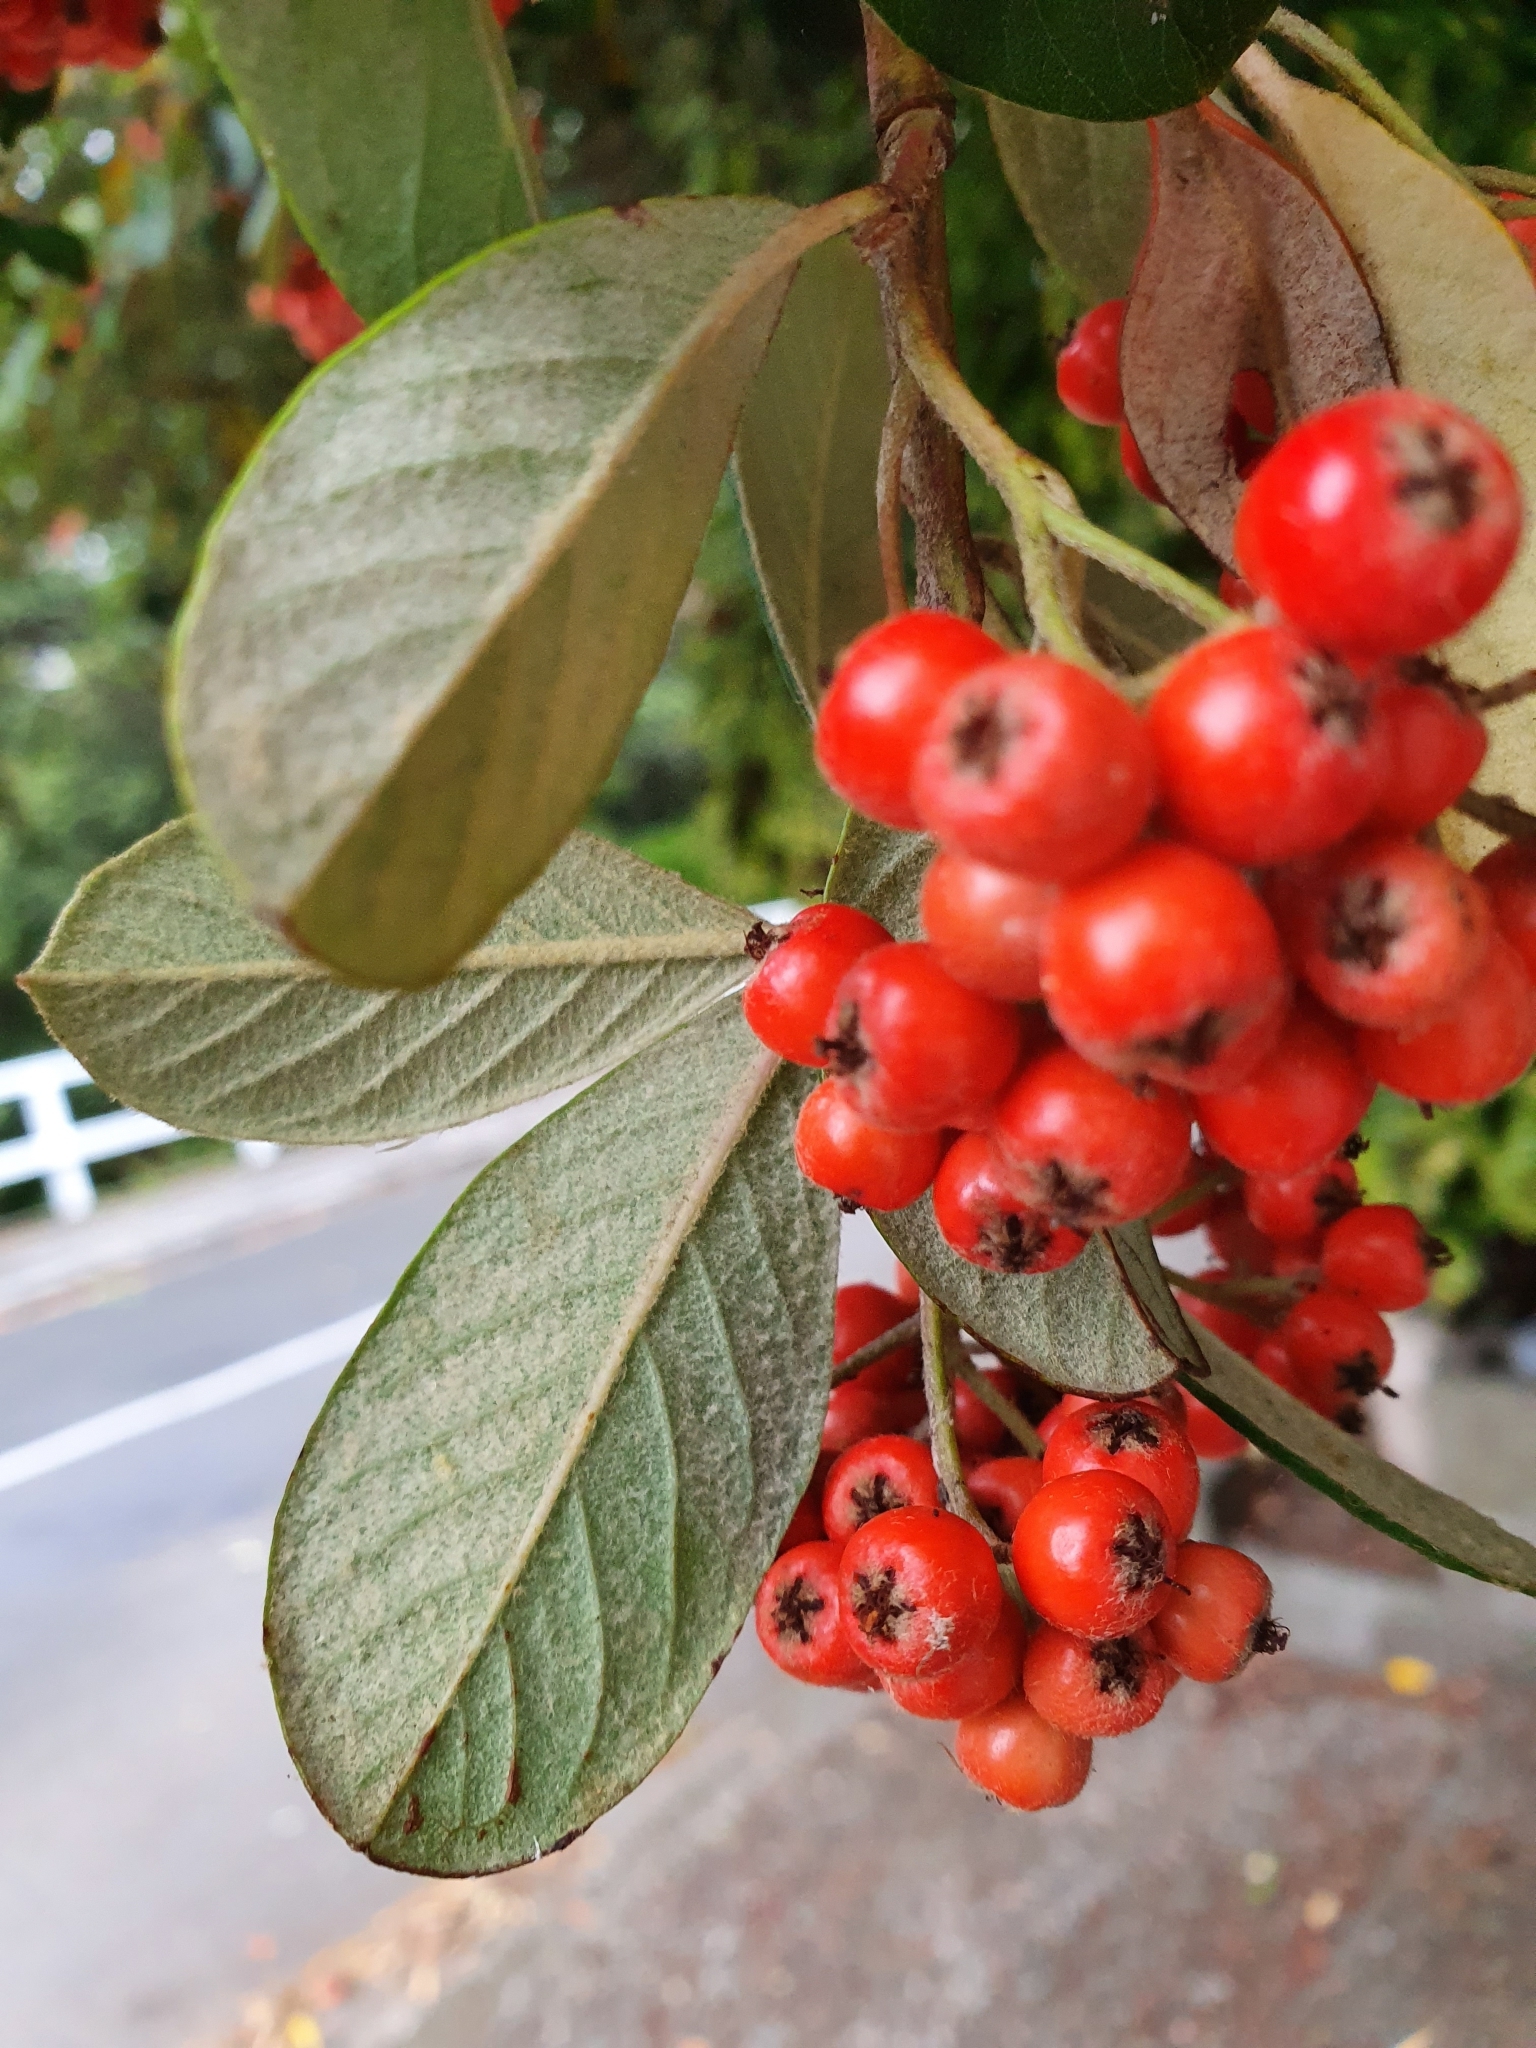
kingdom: Plantae
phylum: Tracheophyta
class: Magnoliopsida
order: Rosales
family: Rosaceae
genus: Cotoneaster
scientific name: Cotoneaster coriaceus
